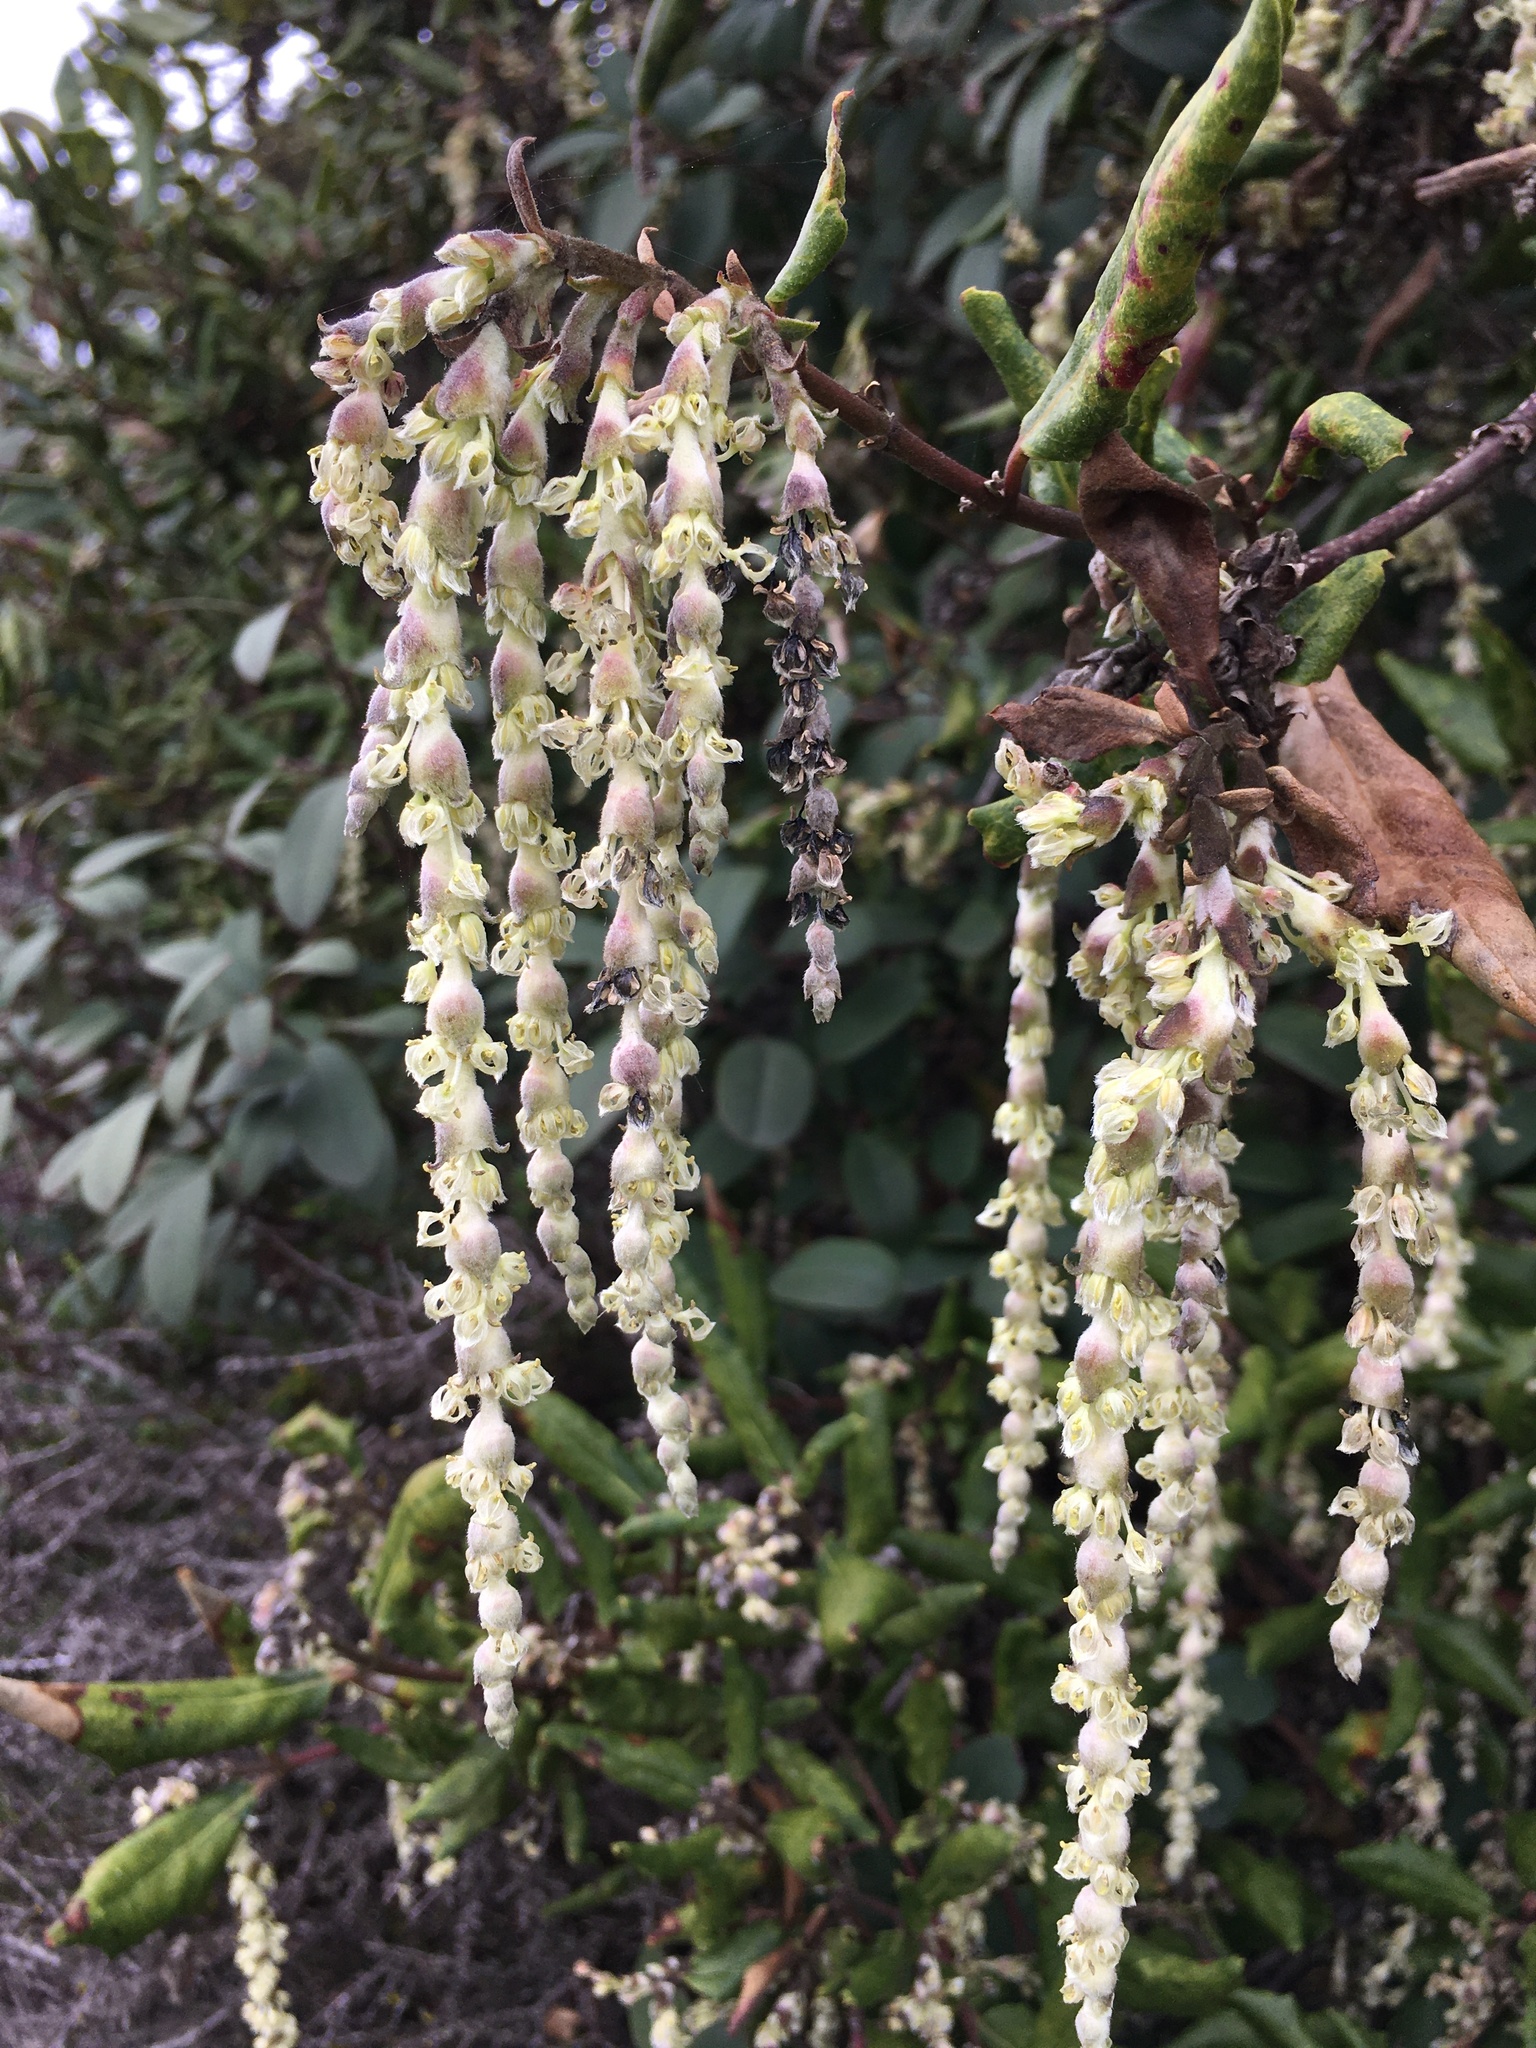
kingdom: Plantae
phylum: Tracheophyta
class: Magnoliopsida
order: Garryales
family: Garryaceae
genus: Garrya
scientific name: Garrya elliptica
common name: Silk-tassel
